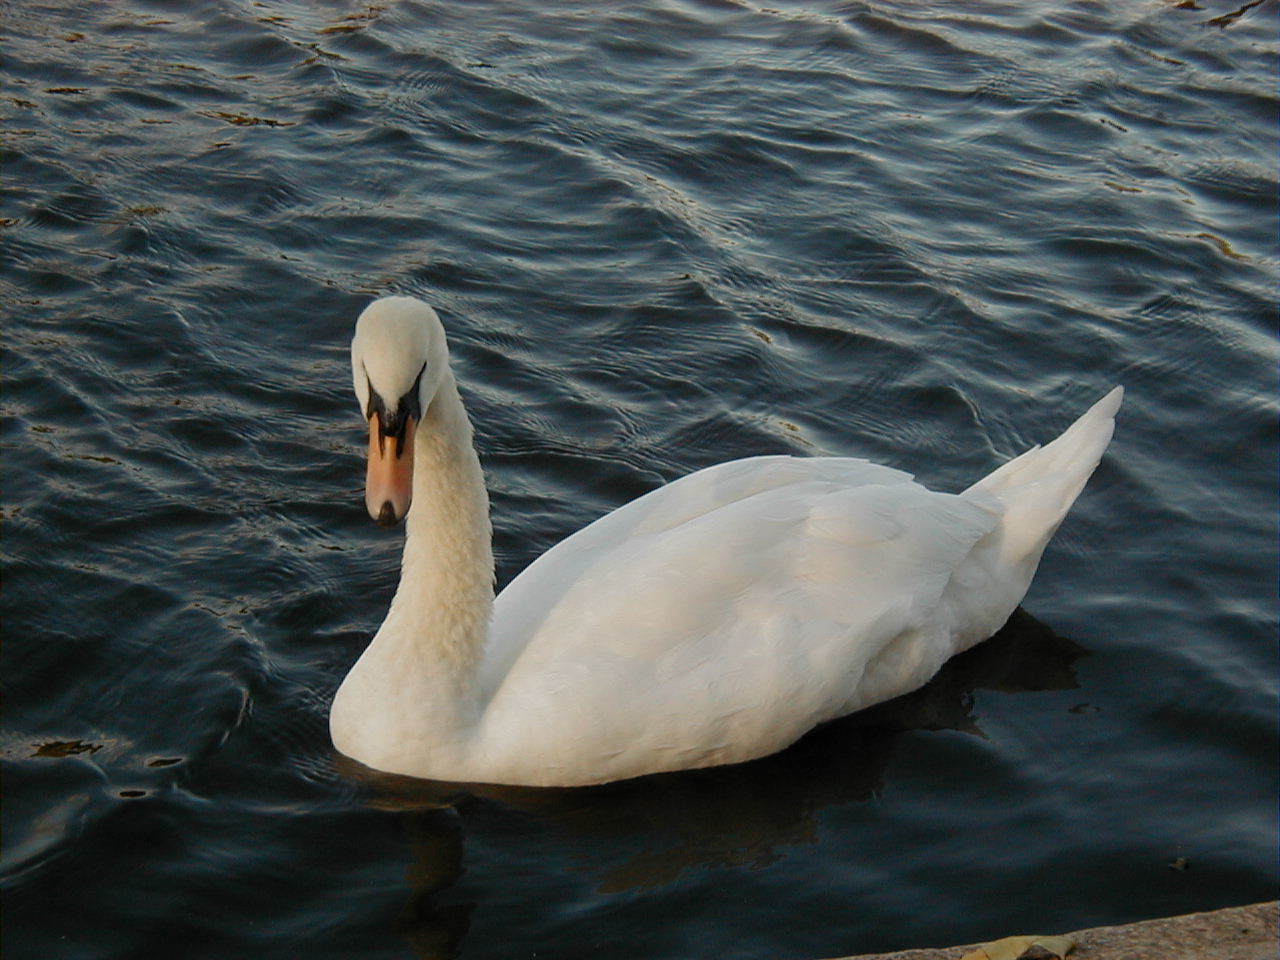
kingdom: Animalia
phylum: Chordata
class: Aves
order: Anseriformes
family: Anatidae
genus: Cygnus
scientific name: Cygnus olor
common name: Mute swan
